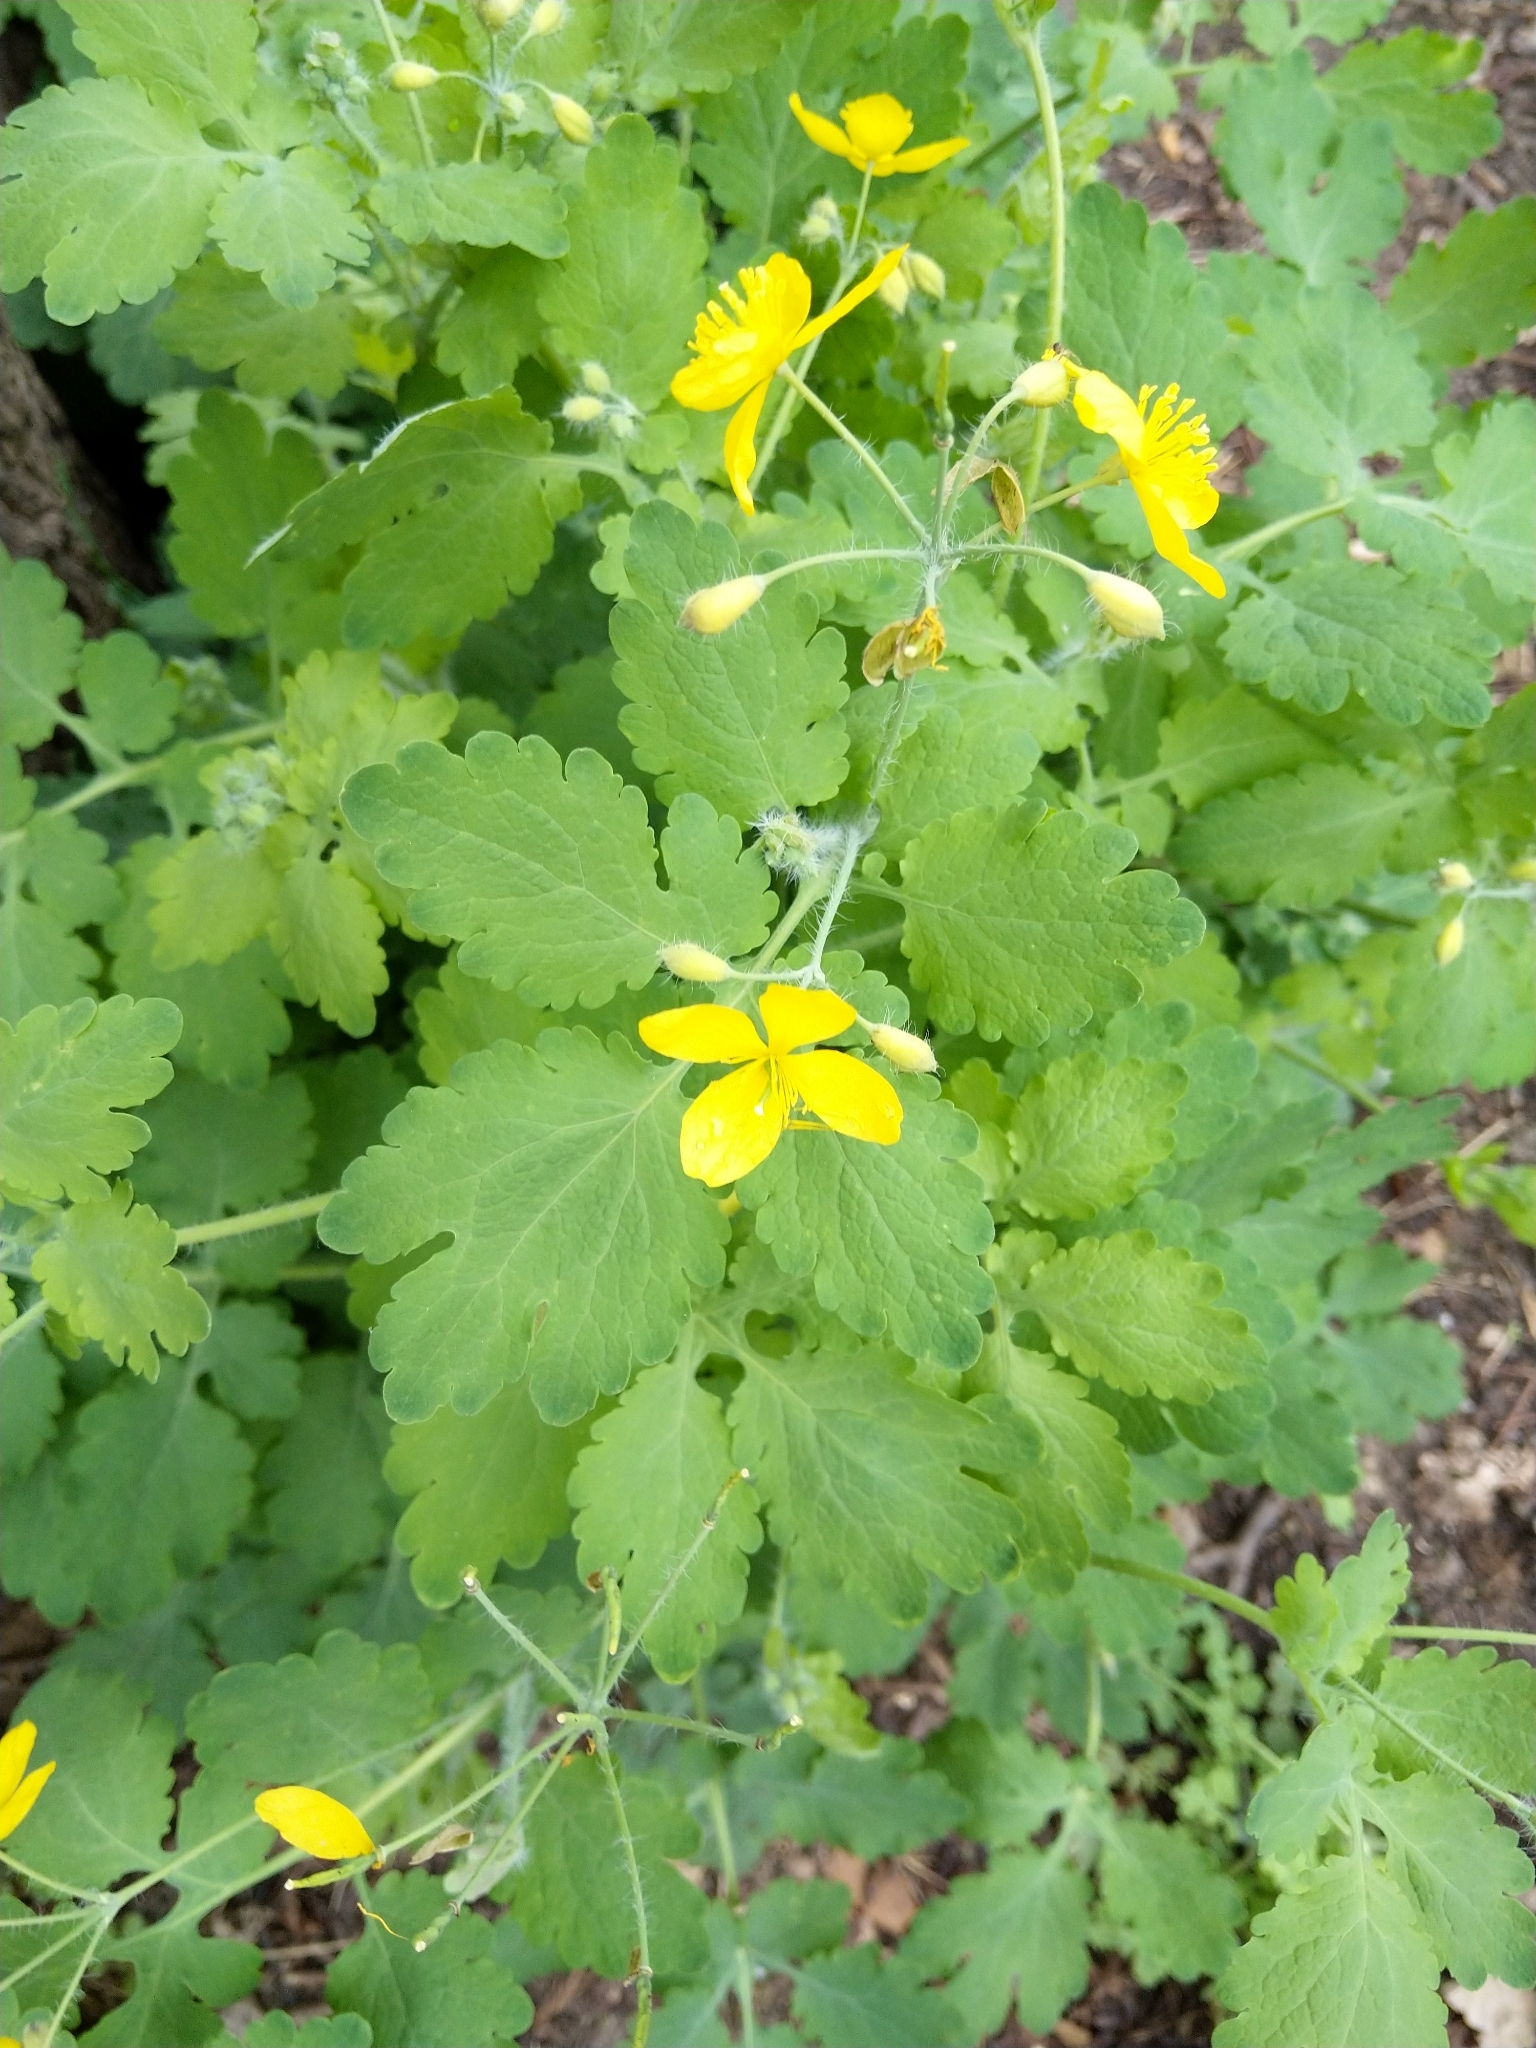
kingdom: Plantae
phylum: Tracheophyta
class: Magnoliopsida
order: Ranunculales
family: Papaveraceae
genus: Chelidonium
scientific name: Chelidonium majus
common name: Greater celandine
